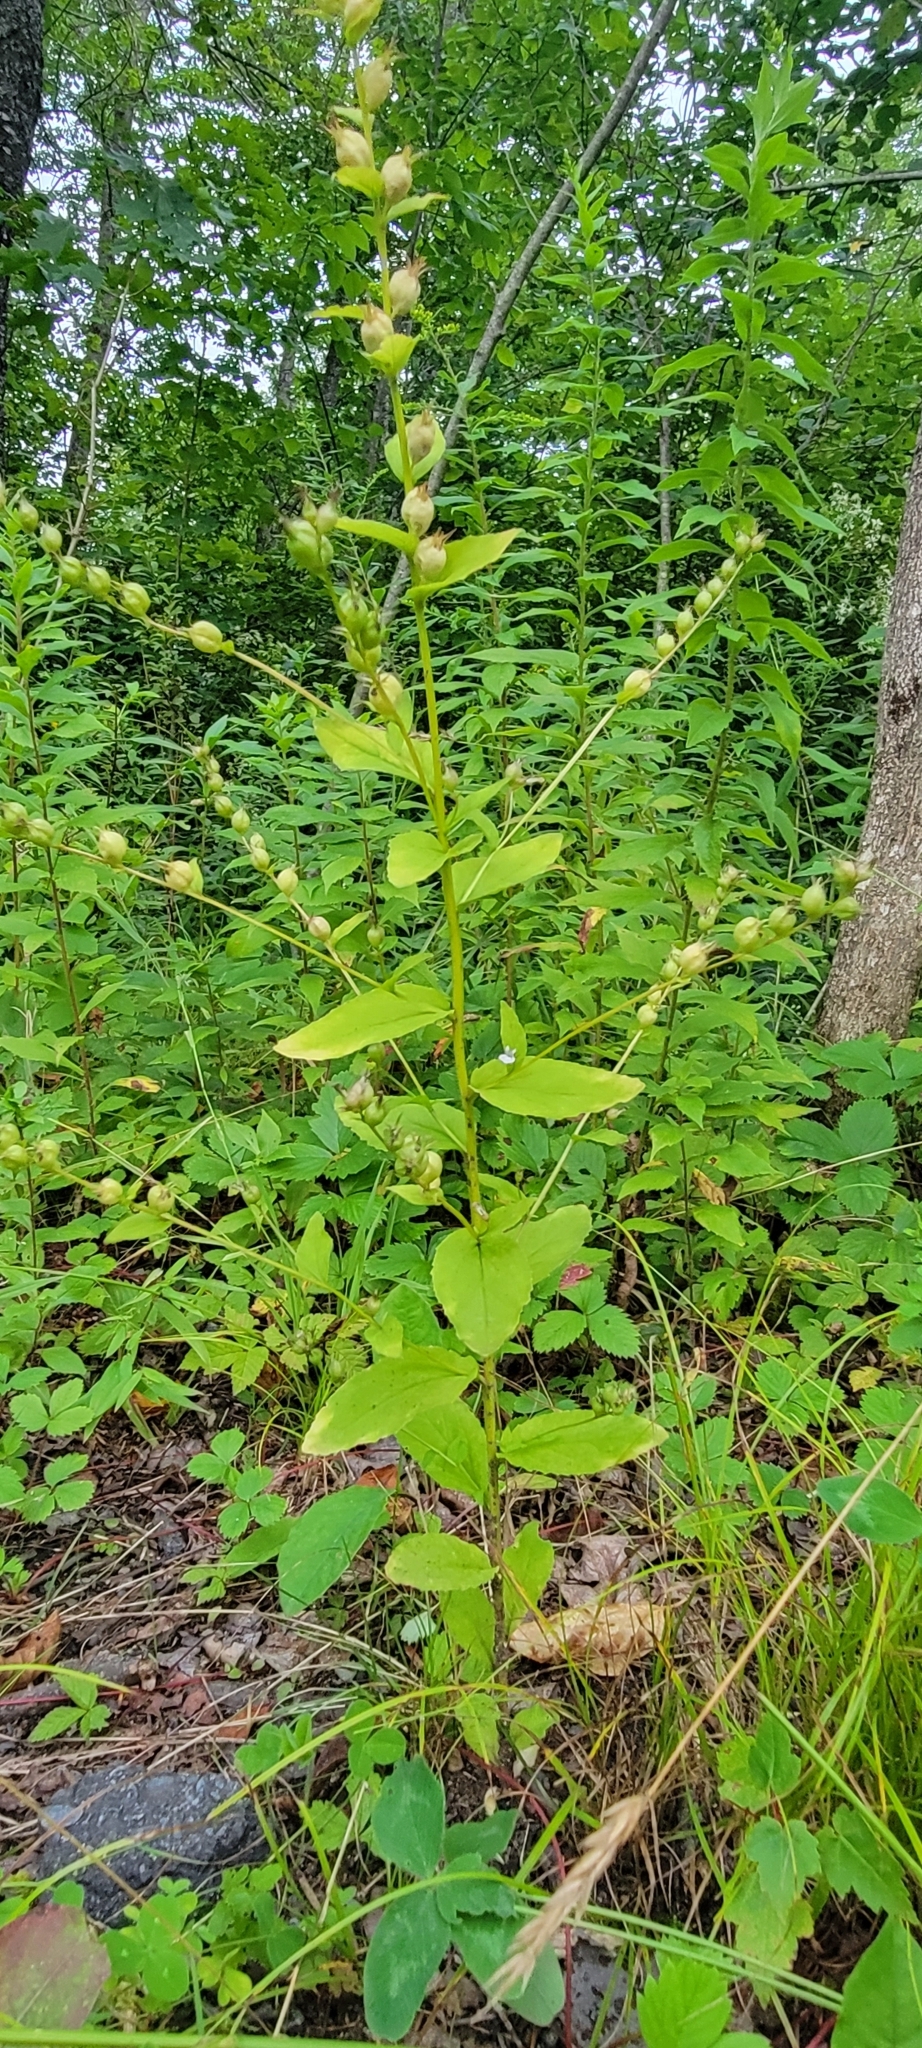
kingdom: Plantae
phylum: Tracheophyta
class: Magnoliopsida
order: Asterales
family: Campanulaceae
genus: Lobelia
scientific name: Lobelia inflata
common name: Indian tobacco
